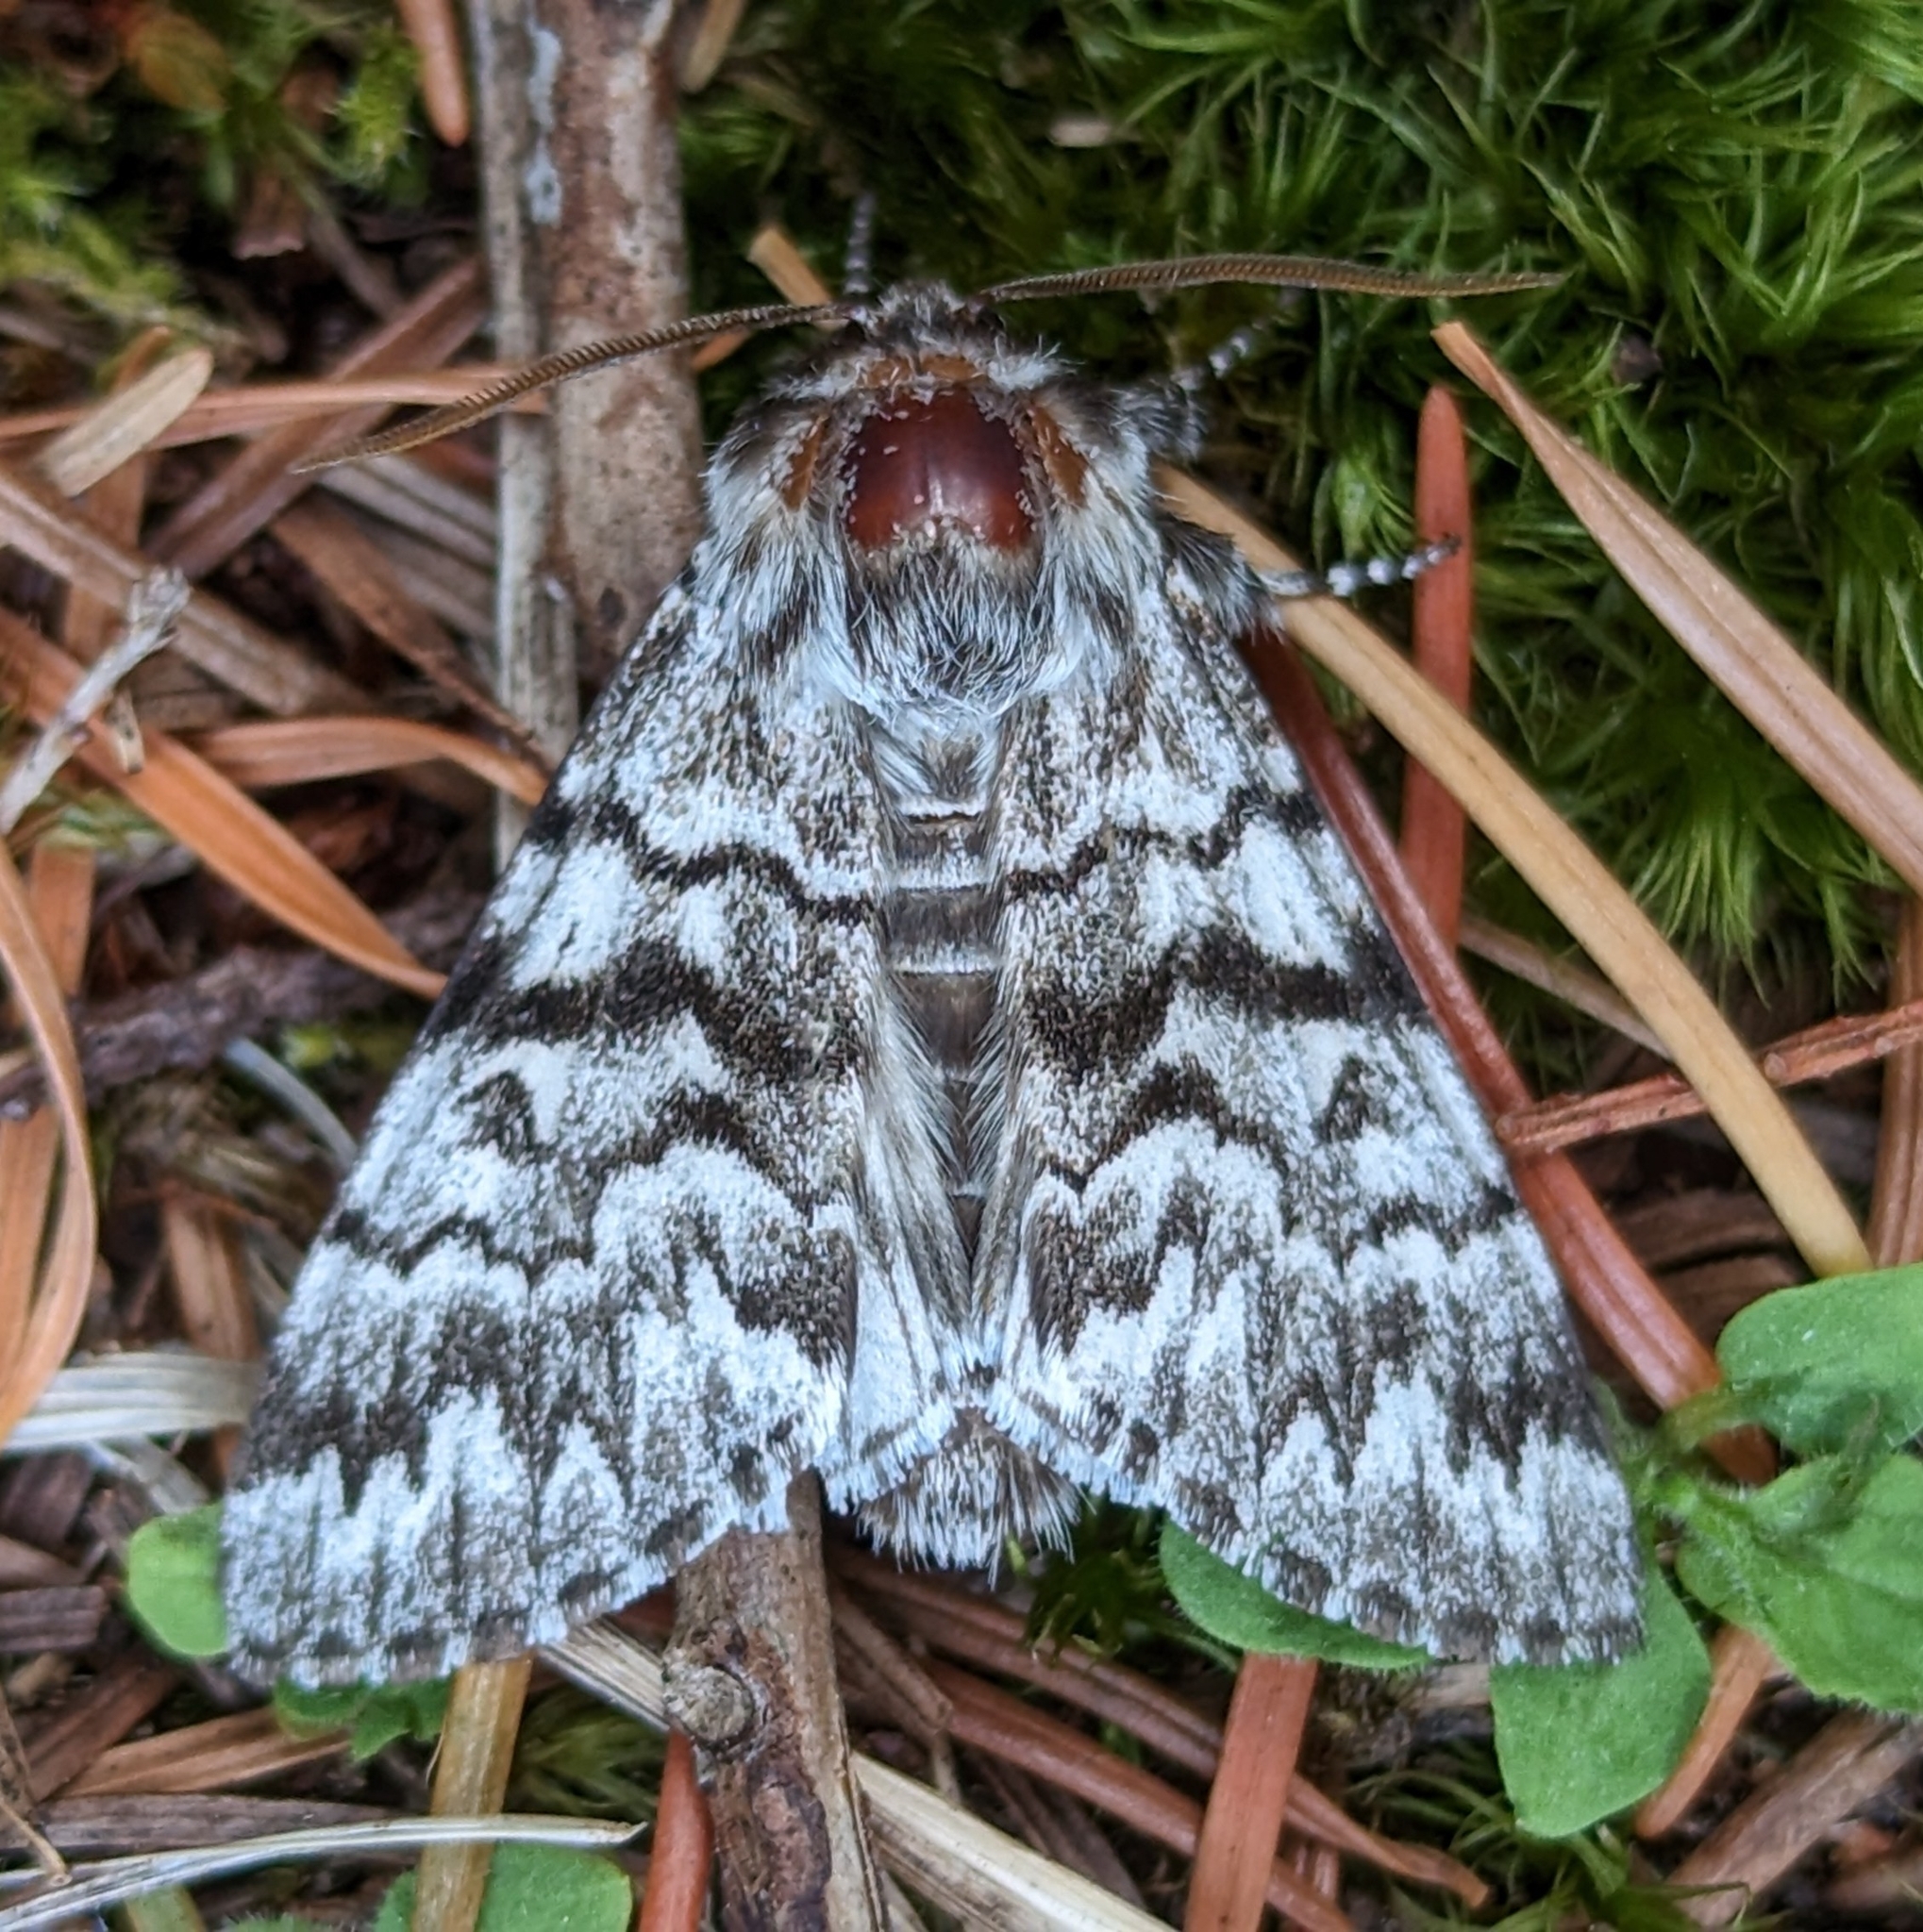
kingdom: Animalia
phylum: Arthropoda
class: Insecta
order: Lepidoptera
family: Noctuidae
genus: Panthea
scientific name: Panthea virginarius
